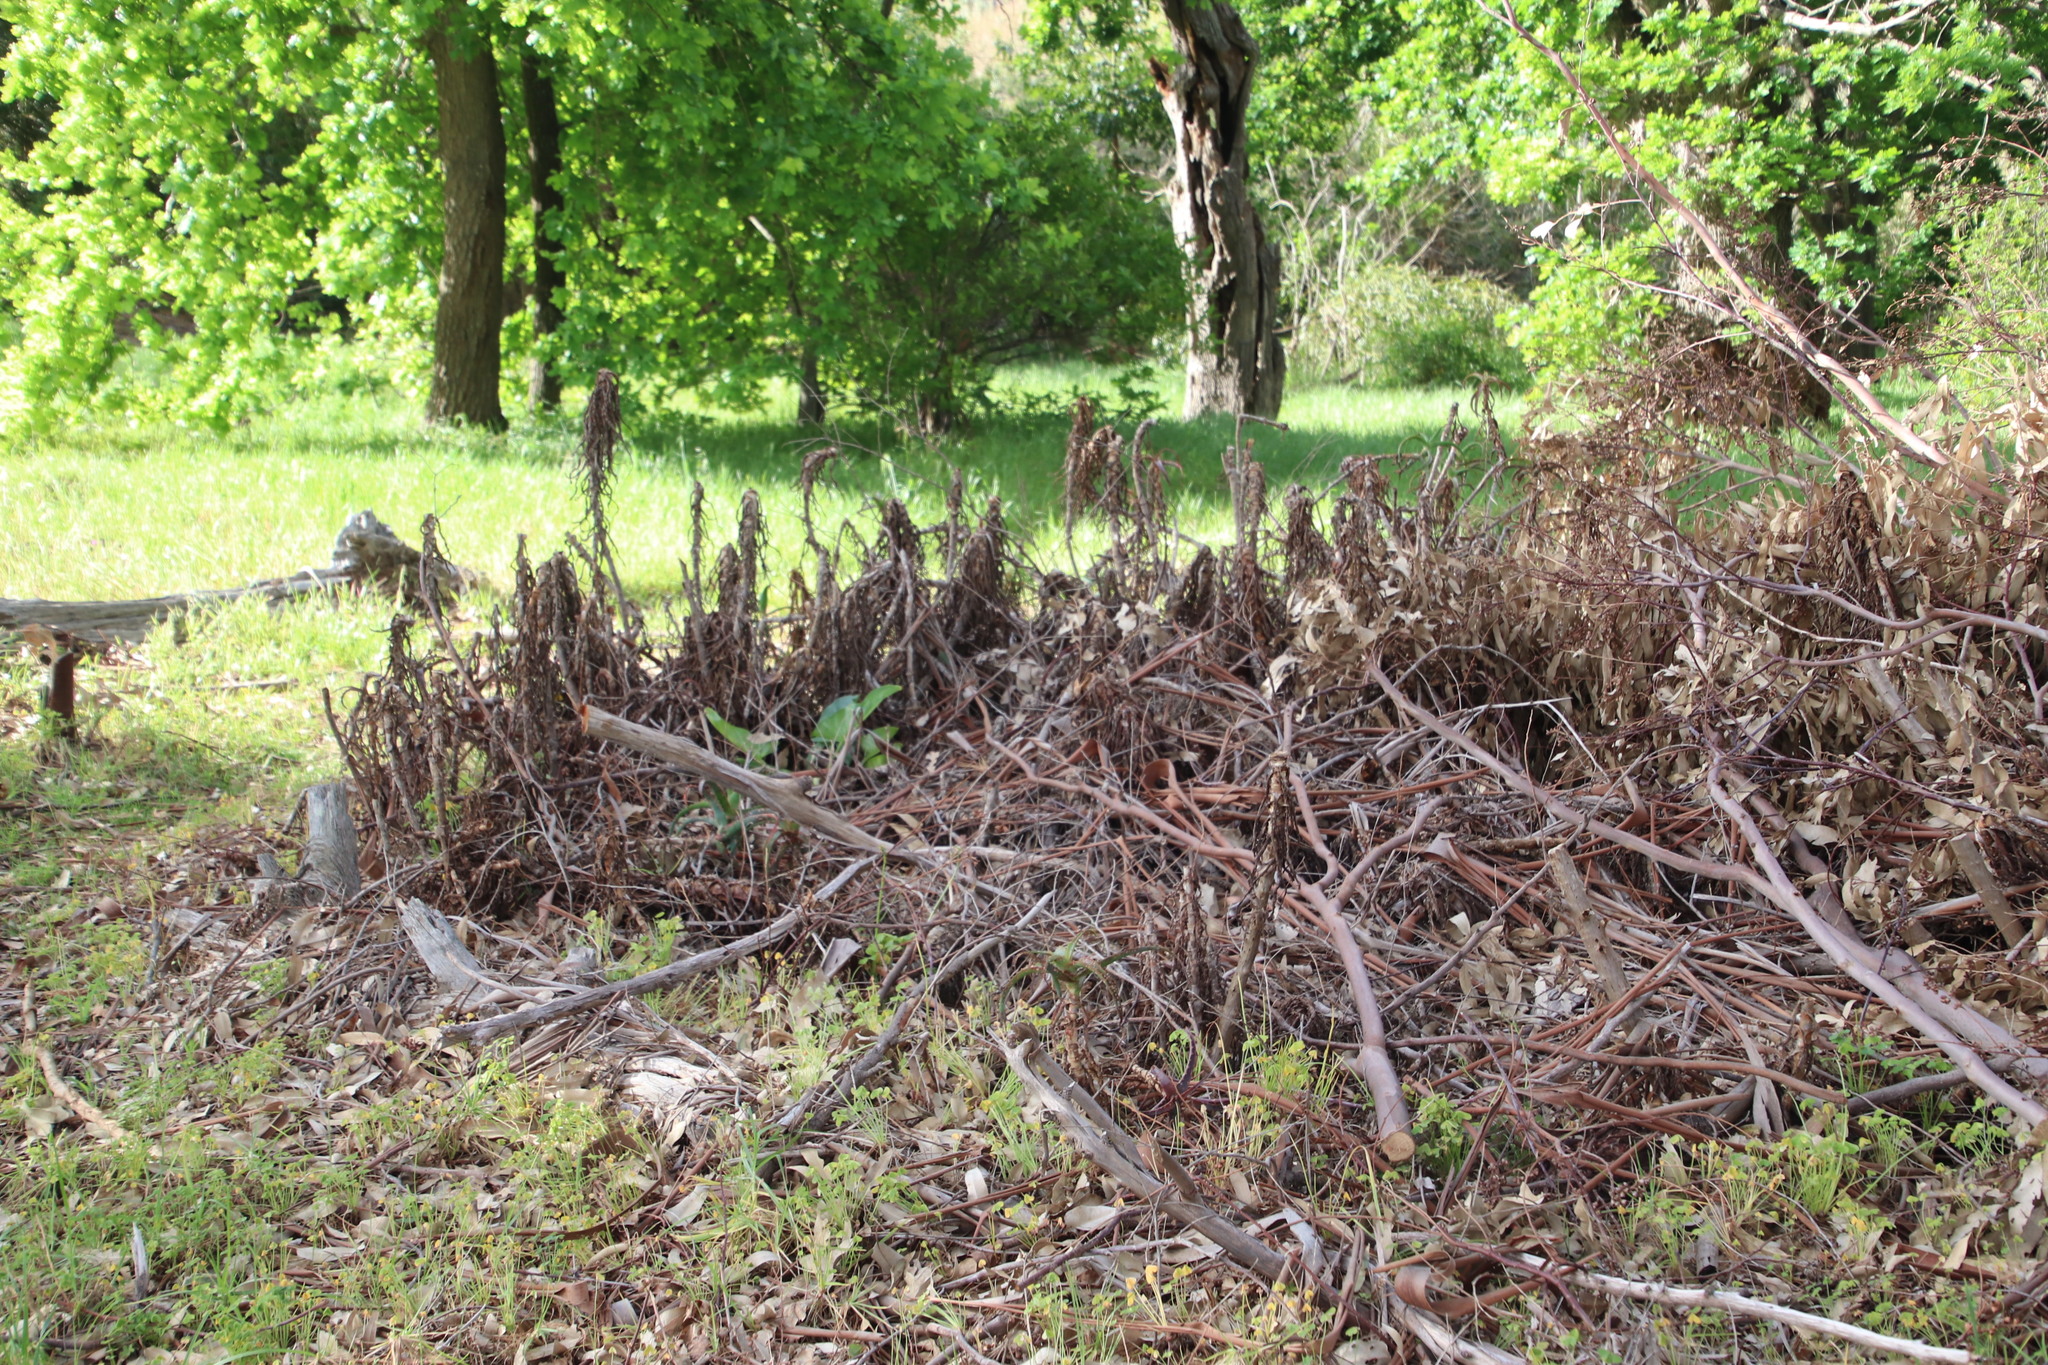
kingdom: Plantae
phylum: Tracheophyta
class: Liliopsida
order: Asparagales
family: Asphodelaceae
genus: Aloe
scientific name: Aloe arborescens
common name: Candelabra aloe
